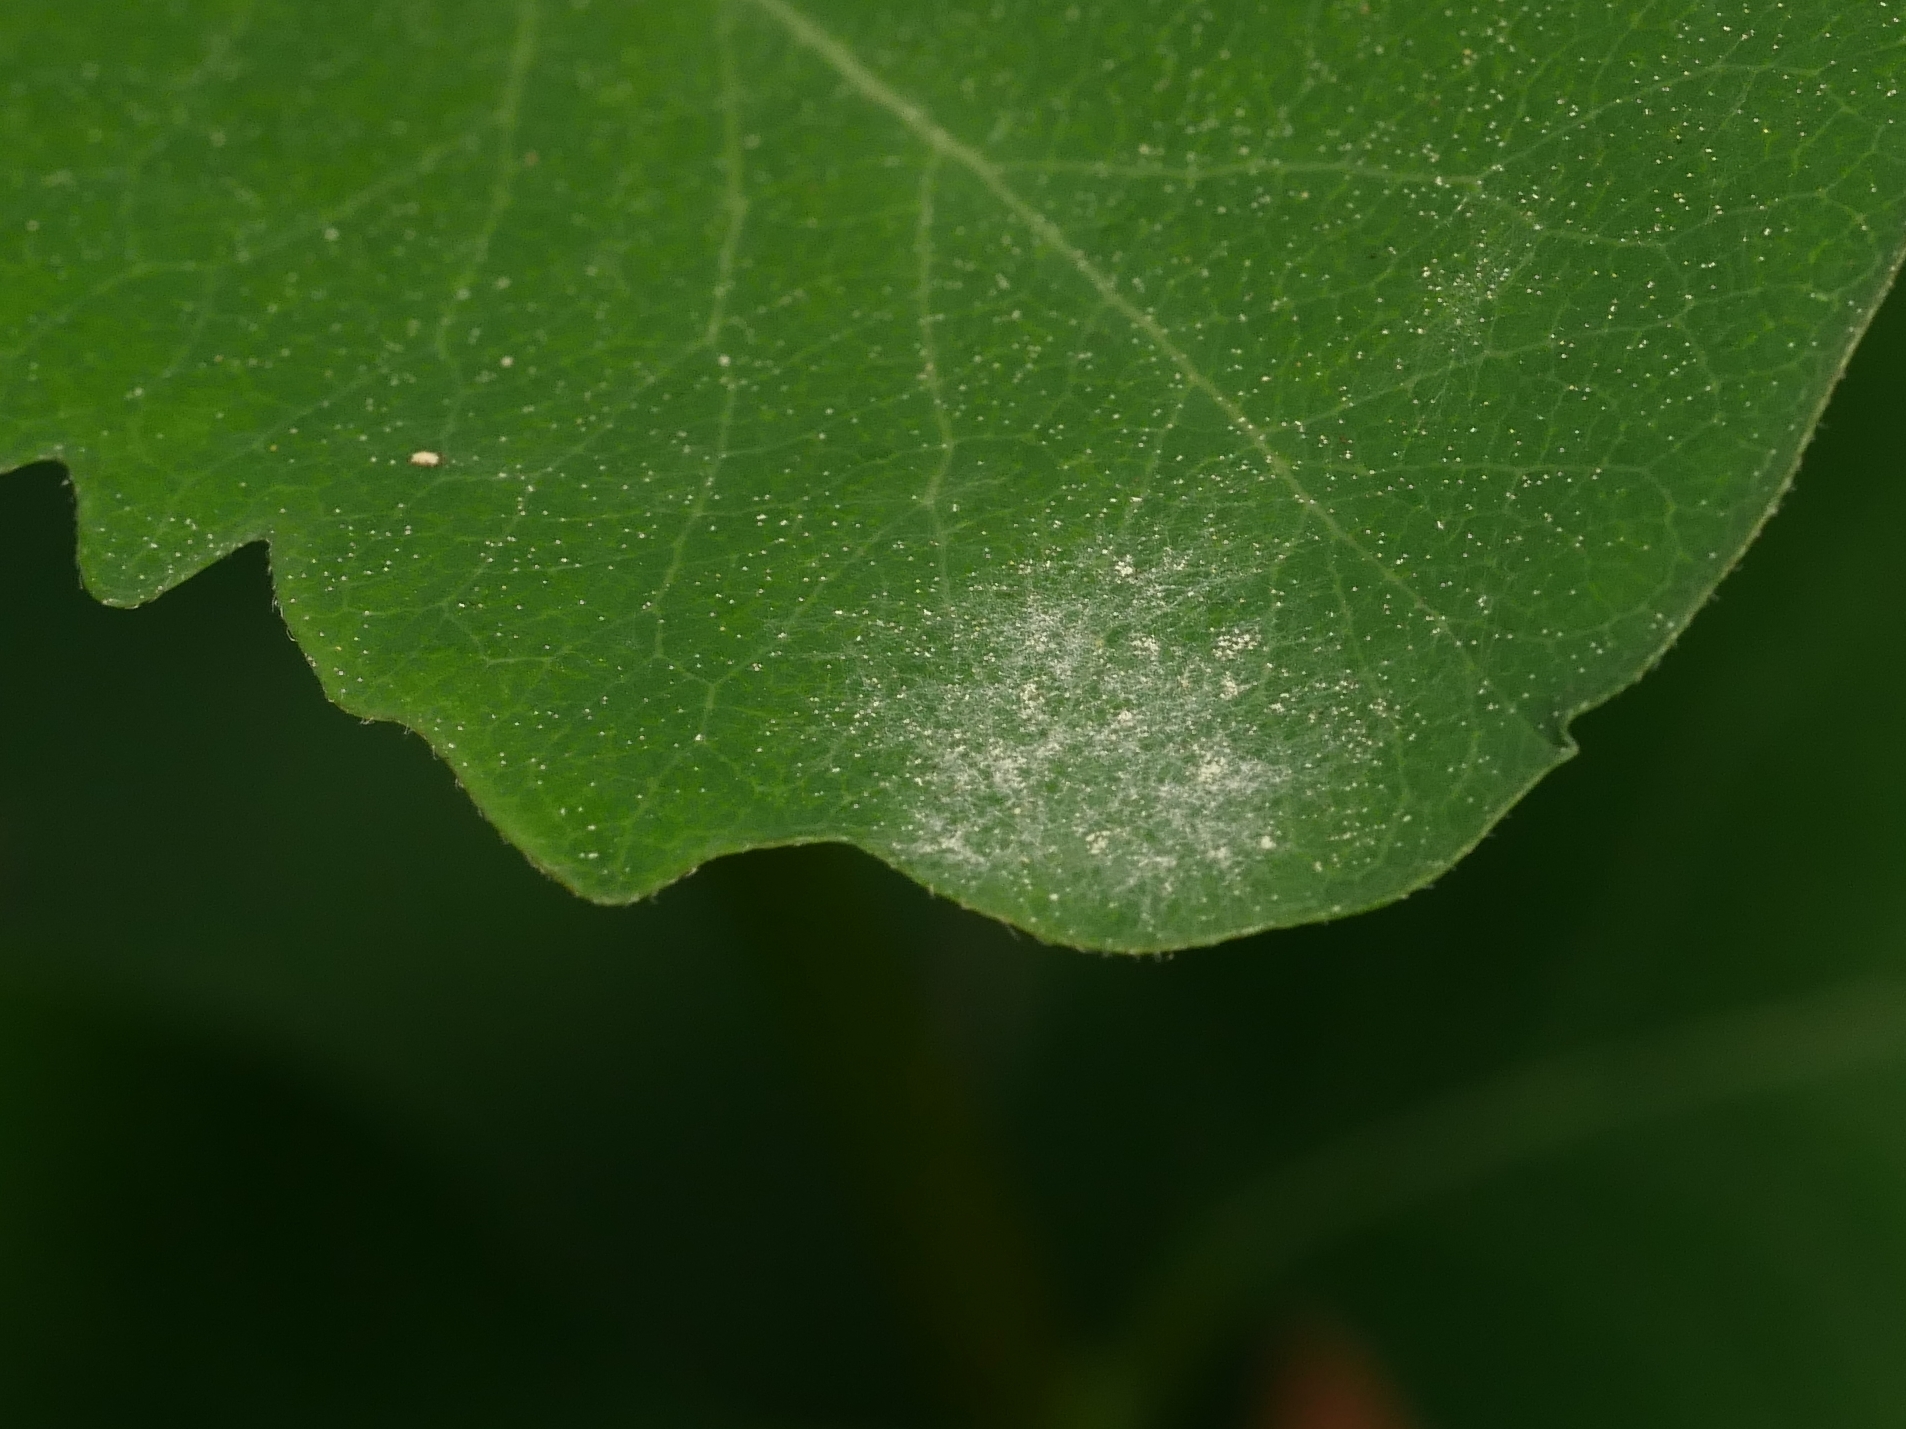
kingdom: Fungi
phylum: Ascomycota
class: Leotiomycetes
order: Helotiales
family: Erysiphaceae
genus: Erysiphe
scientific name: Erysiphe symphoricarpi
